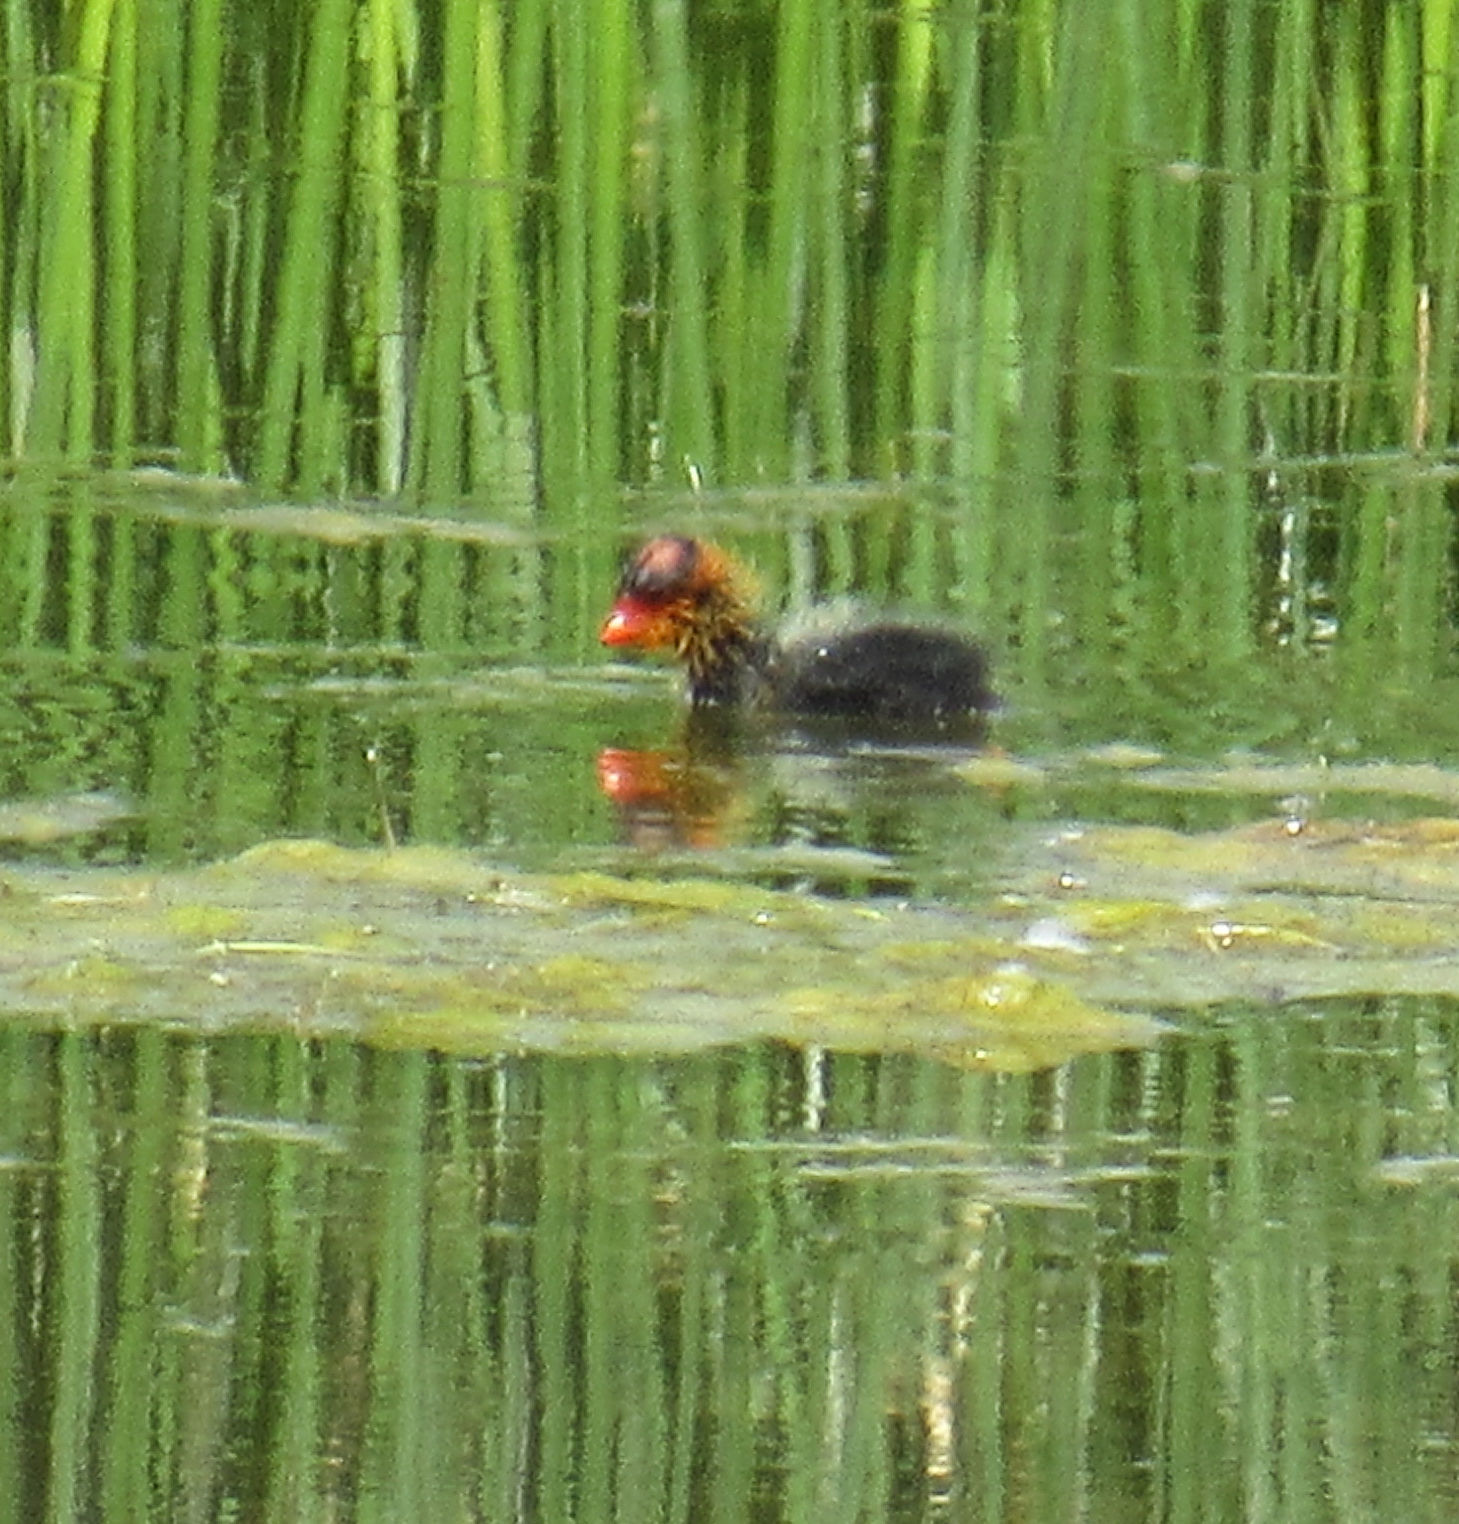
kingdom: Animalia
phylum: Chordata
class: Aves
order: Gruiformes
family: Rallidae
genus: Fulica
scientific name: Fulica americana
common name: American coot
